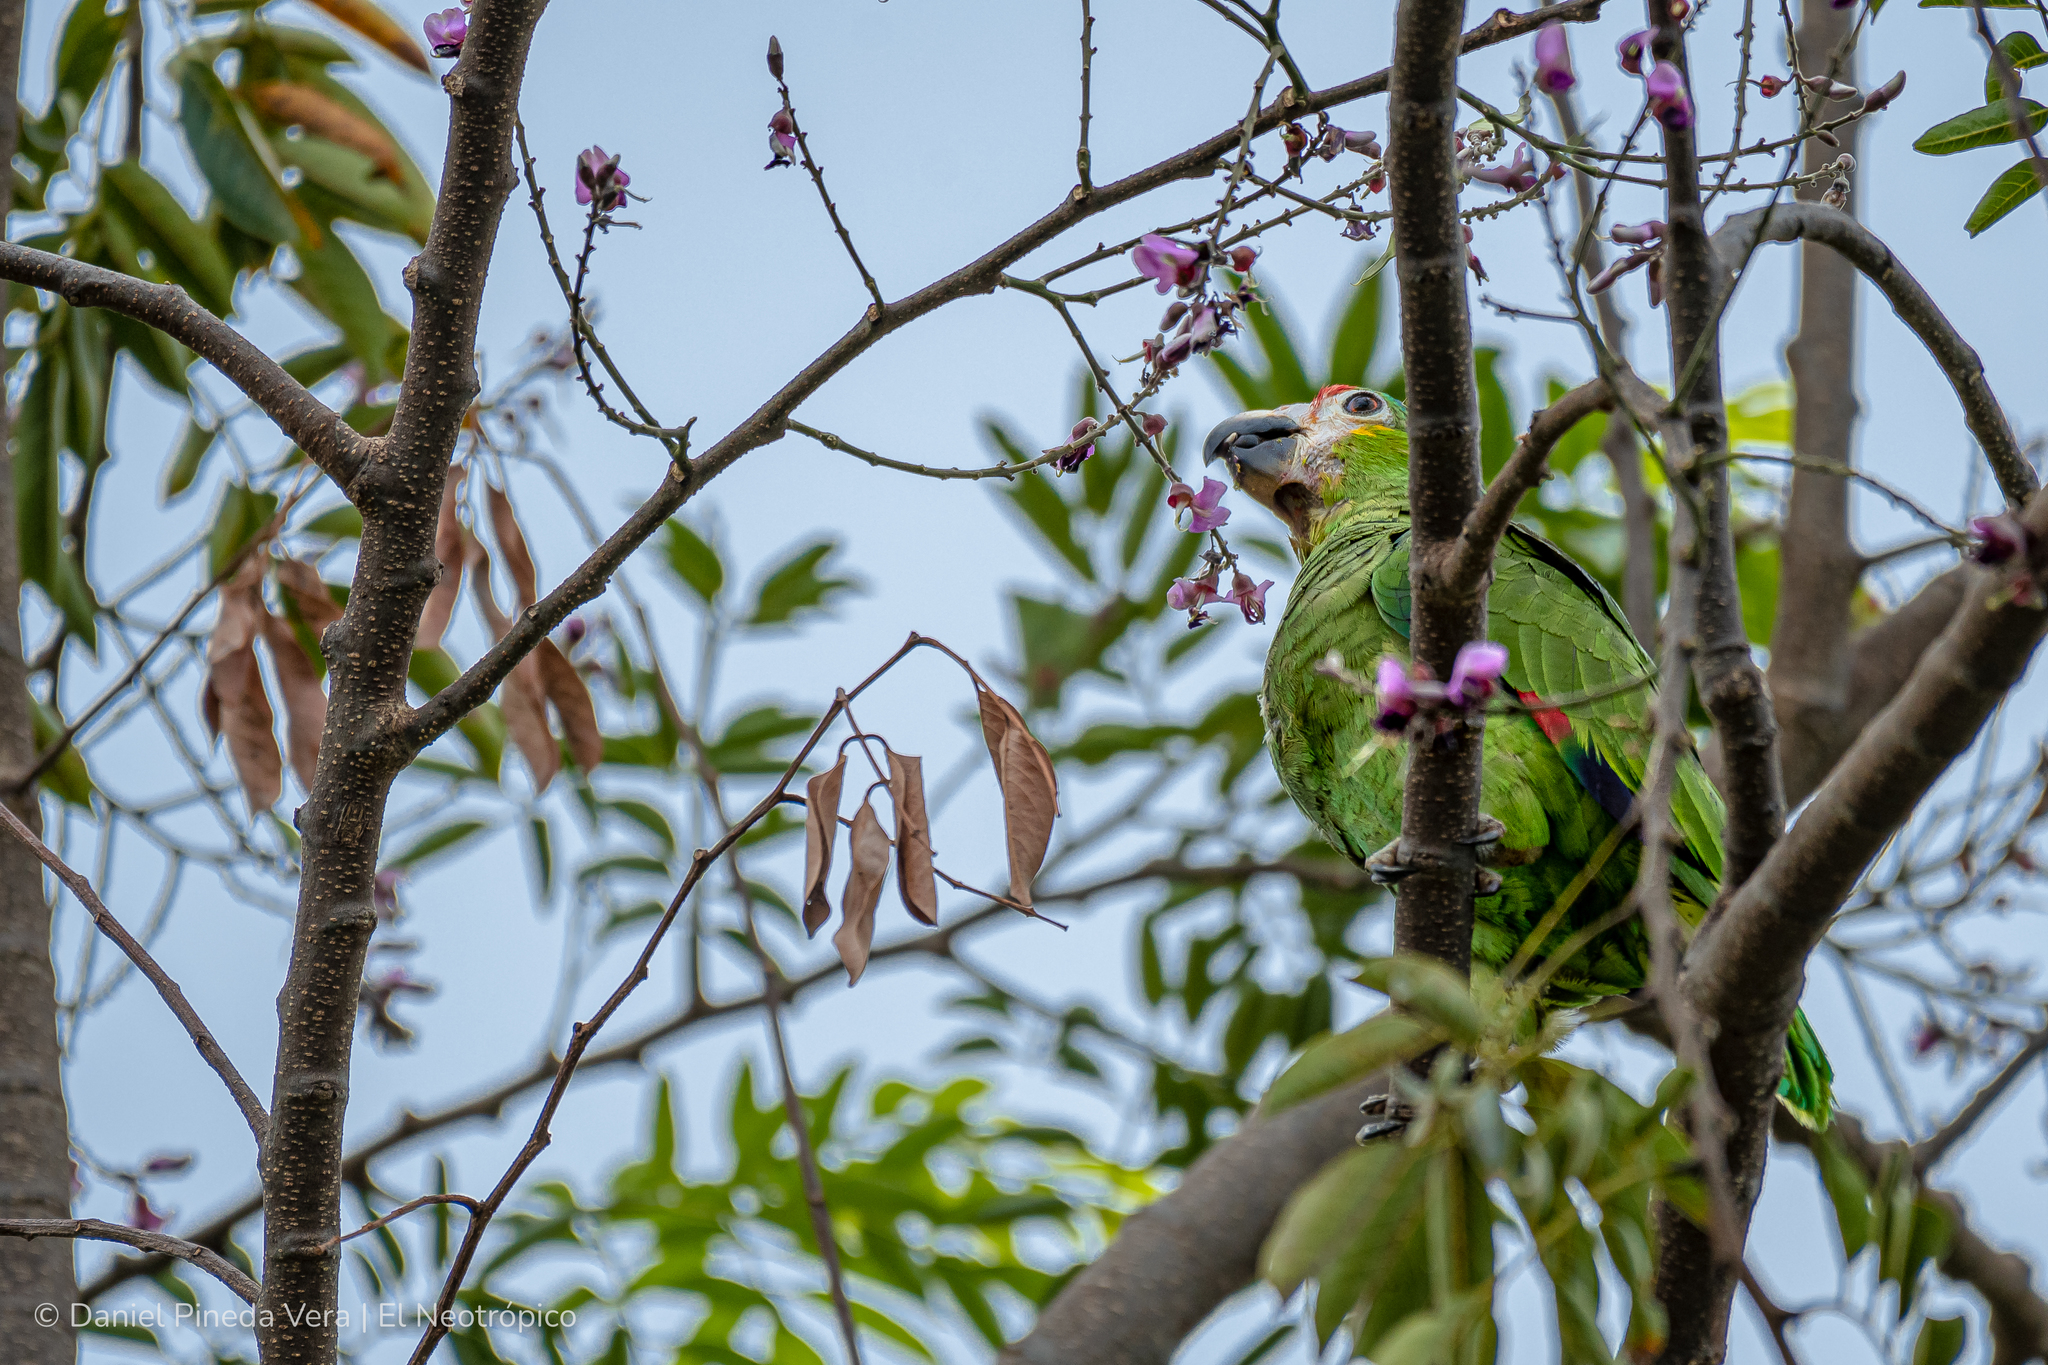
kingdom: Animalia
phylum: Chordata
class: Aves
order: Psittaciformes
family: Psittacidae
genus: Amazona
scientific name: Amazona autumnalis
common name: Red-lored amazon
